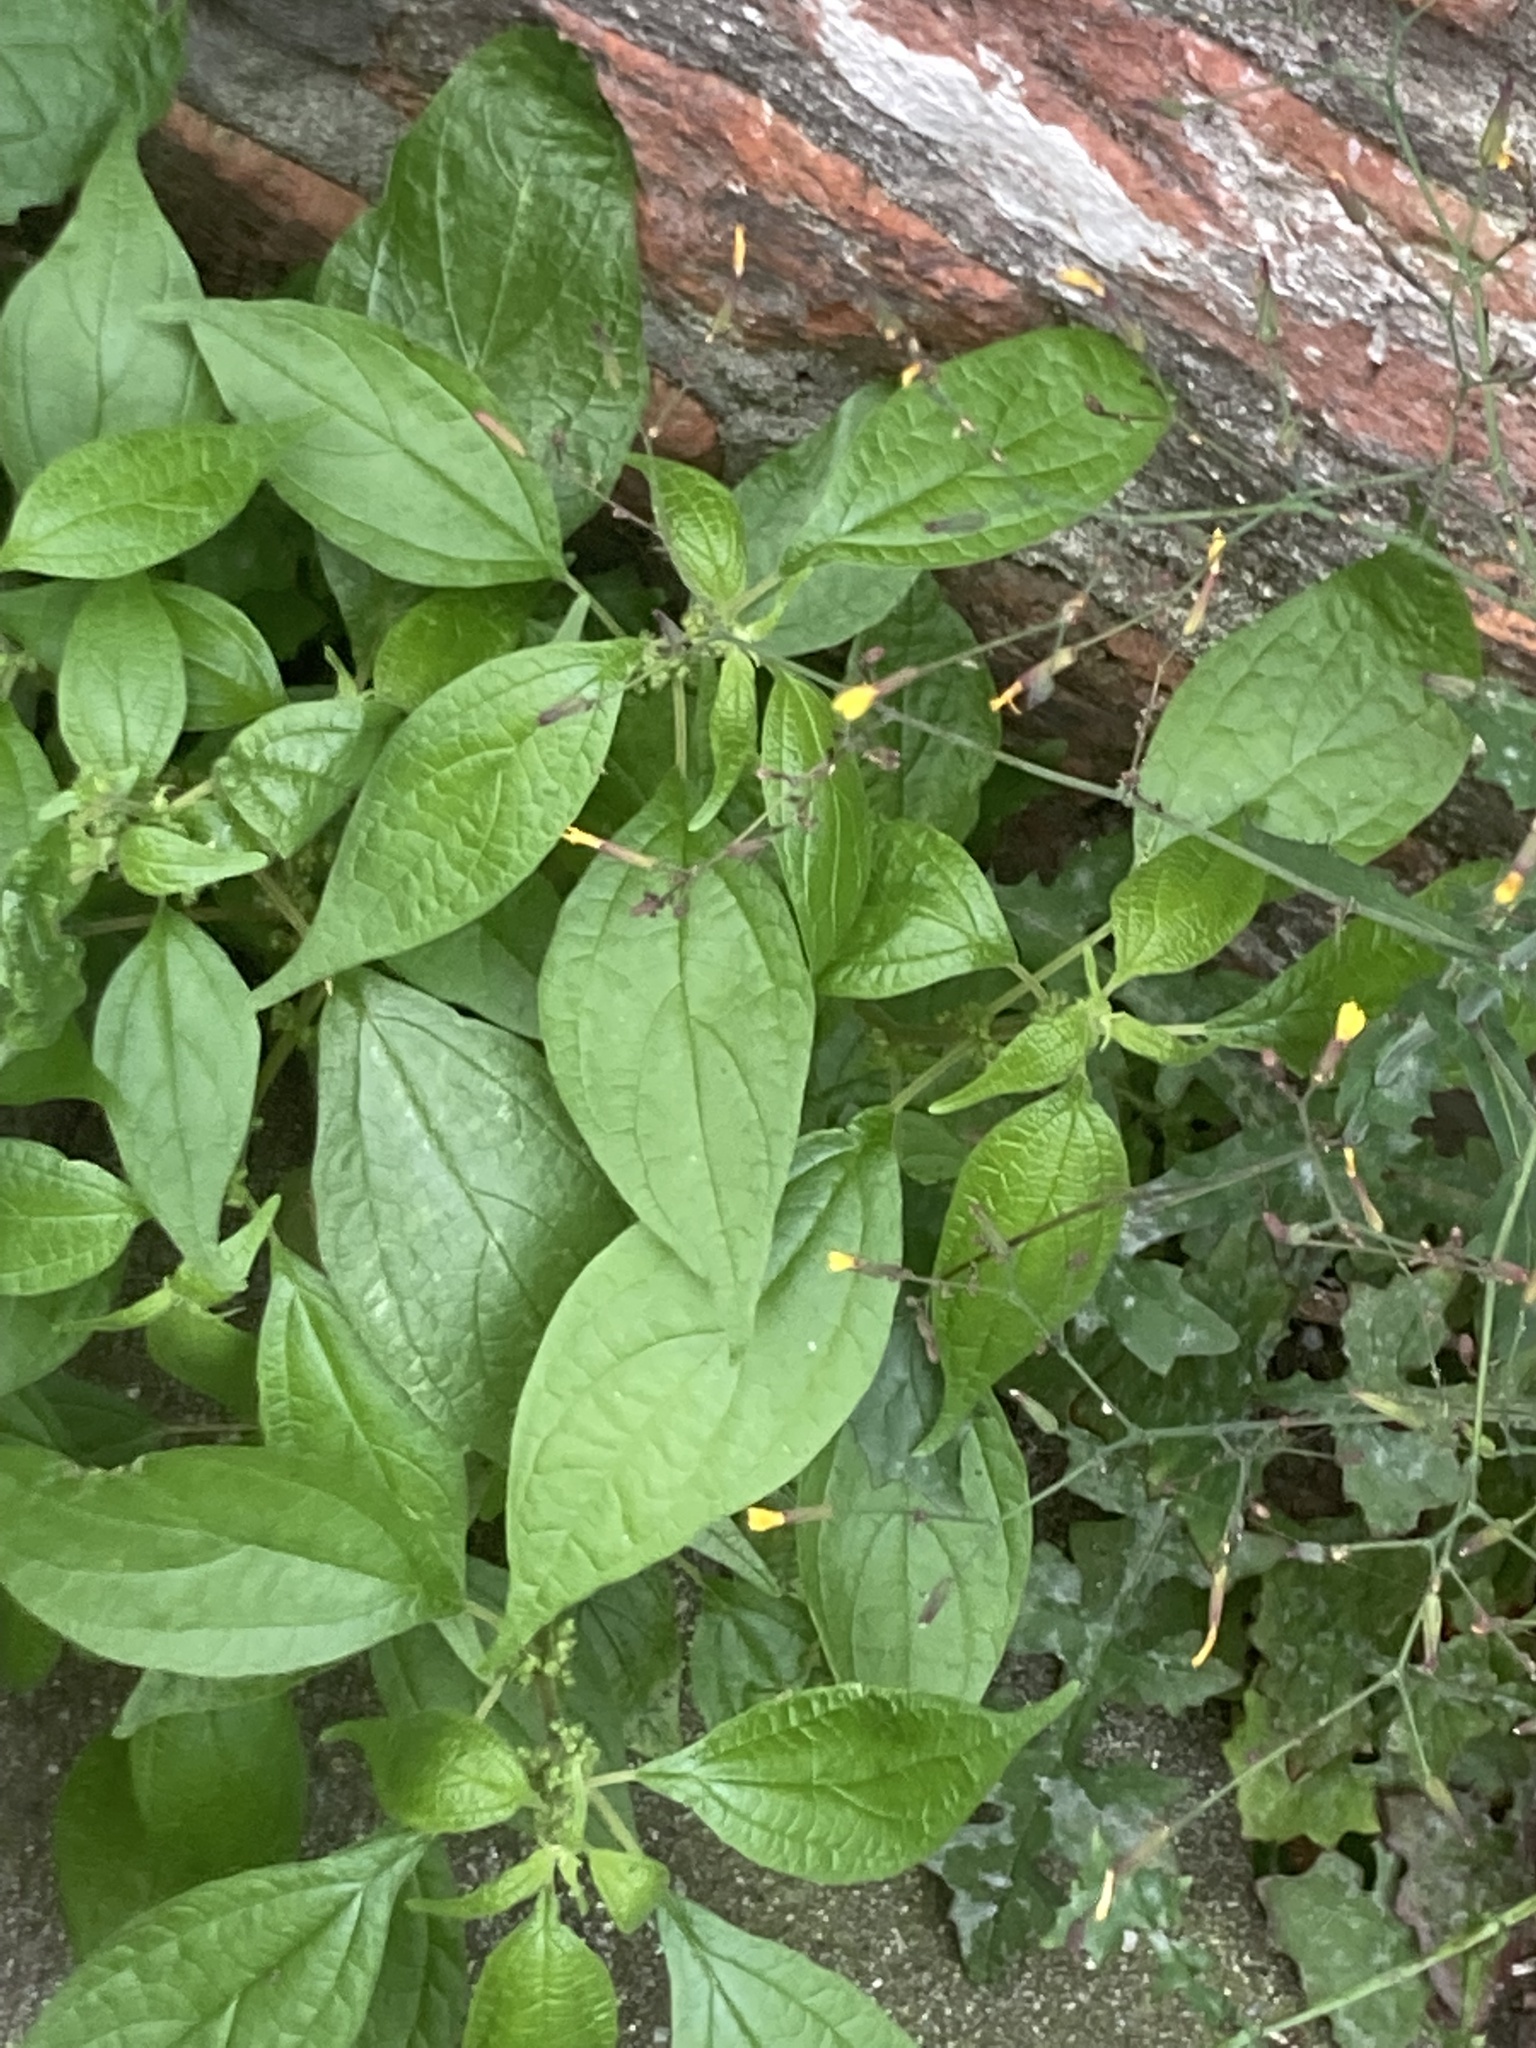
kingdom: Plantae
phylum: Tracheophyta
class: Magnoliopsida
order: Rosales
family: Urticaceae
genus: Parietaria
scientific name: Parietaria officinalis
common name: Eastern pellitory-of-the-wall
